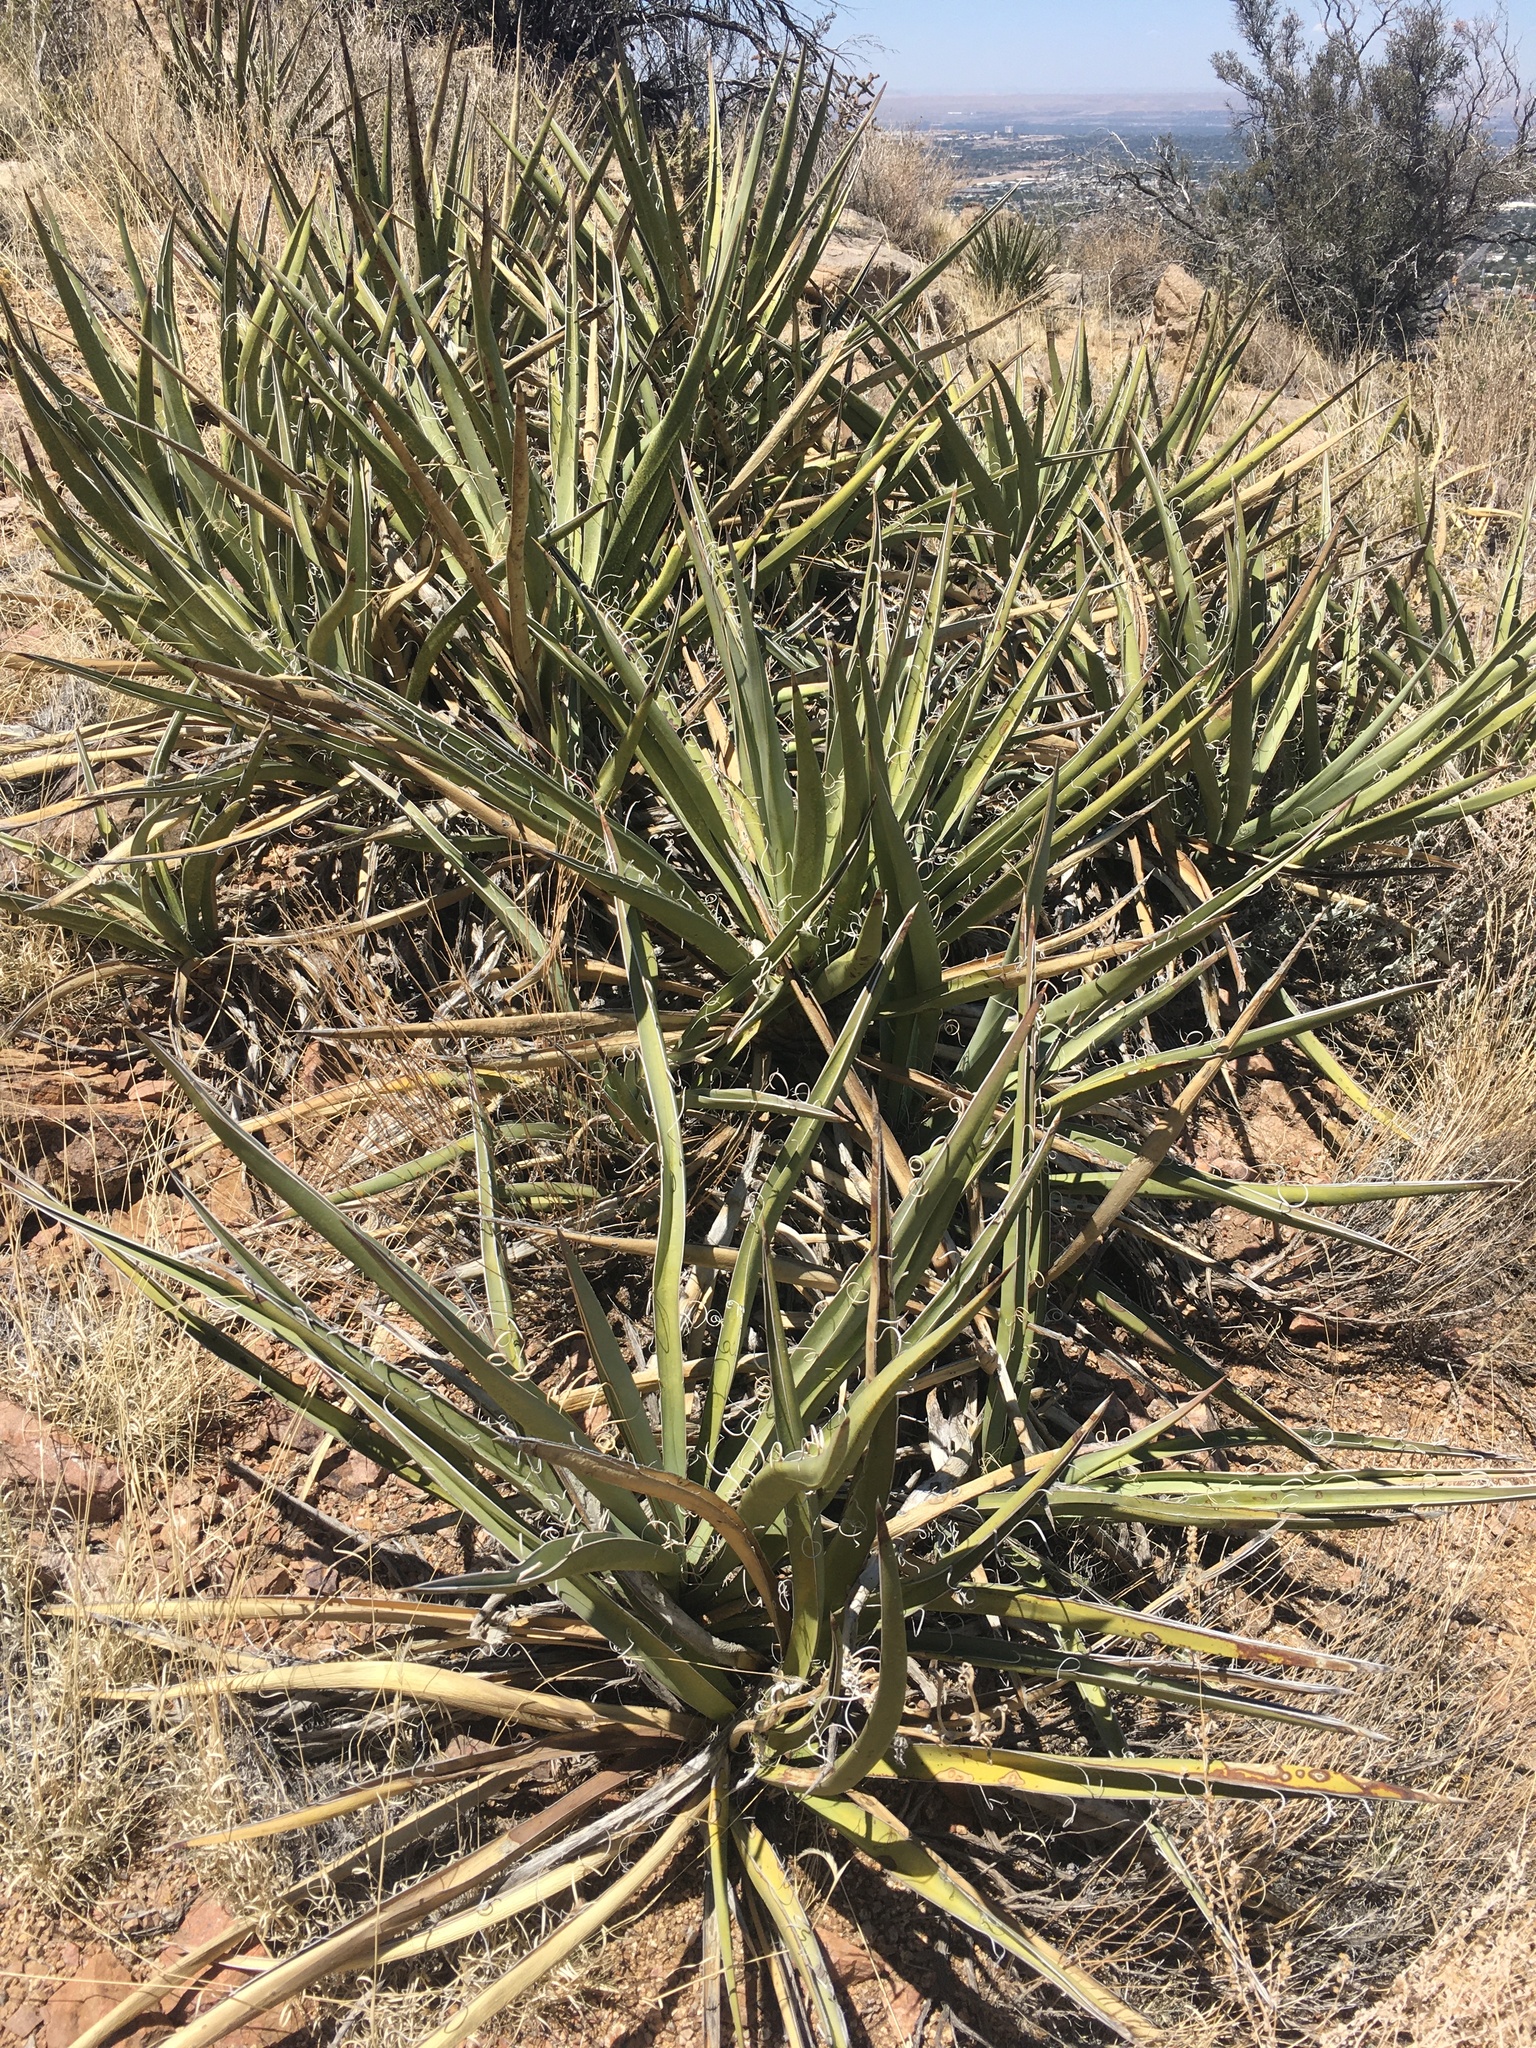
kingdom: Plantae
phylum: Tracheophyta
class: Liliopsida
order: Asparagales
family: Asparagaceae
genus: Yucca
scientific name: Yucca baccata
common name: Banana yucca
